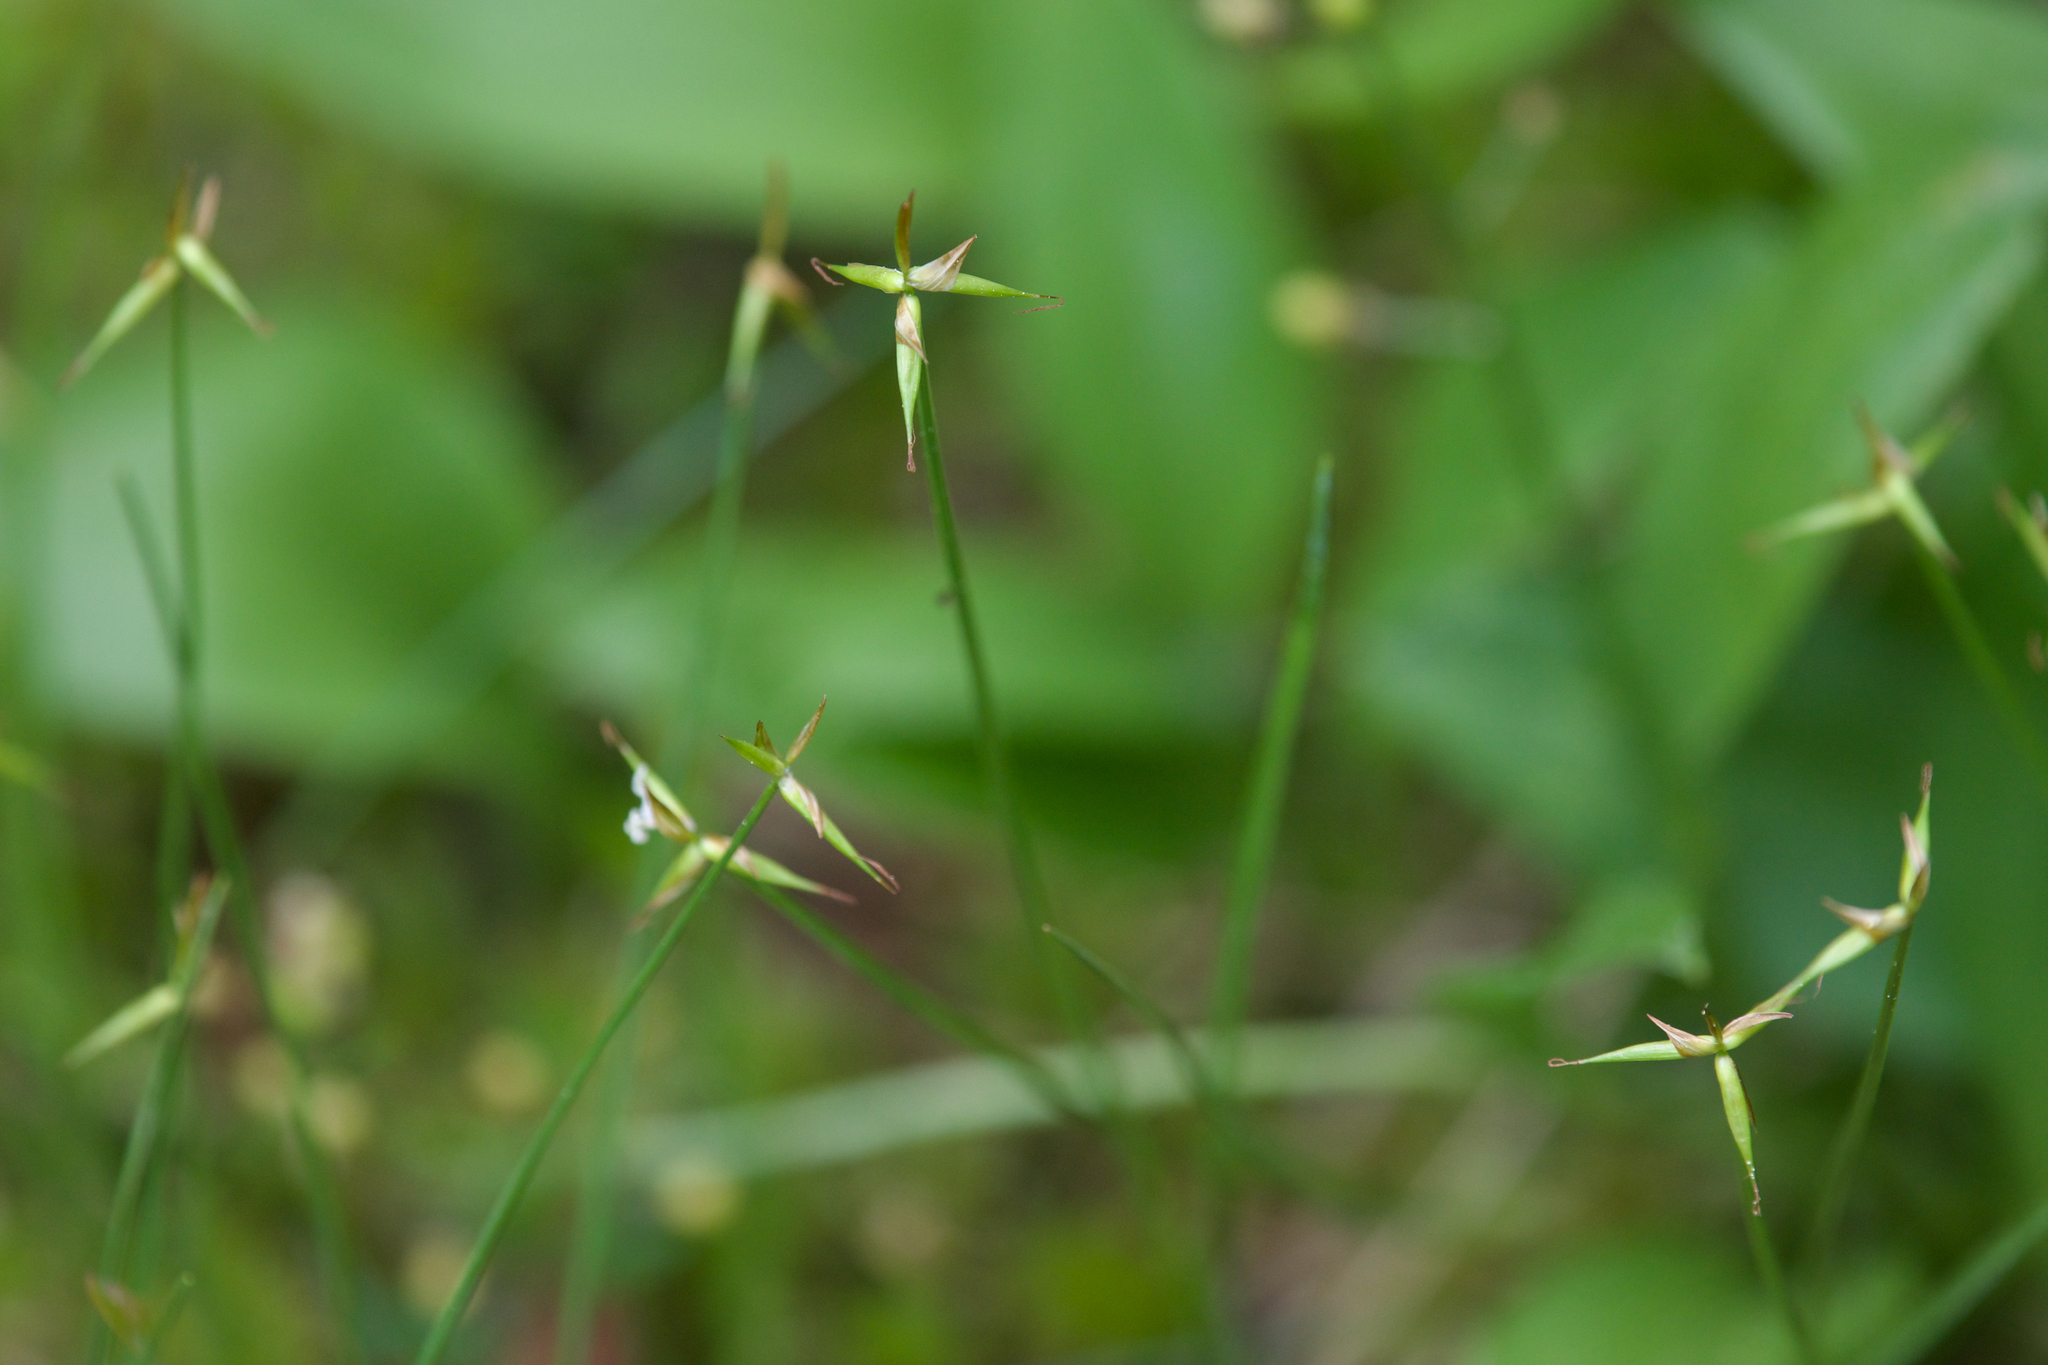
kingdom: Plantae
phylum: Tracheophyta
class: Liliopsida
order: Poales
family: Cyperaceae
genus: Carex
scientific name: Carex pauciflora
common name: Few-flowered sedge
